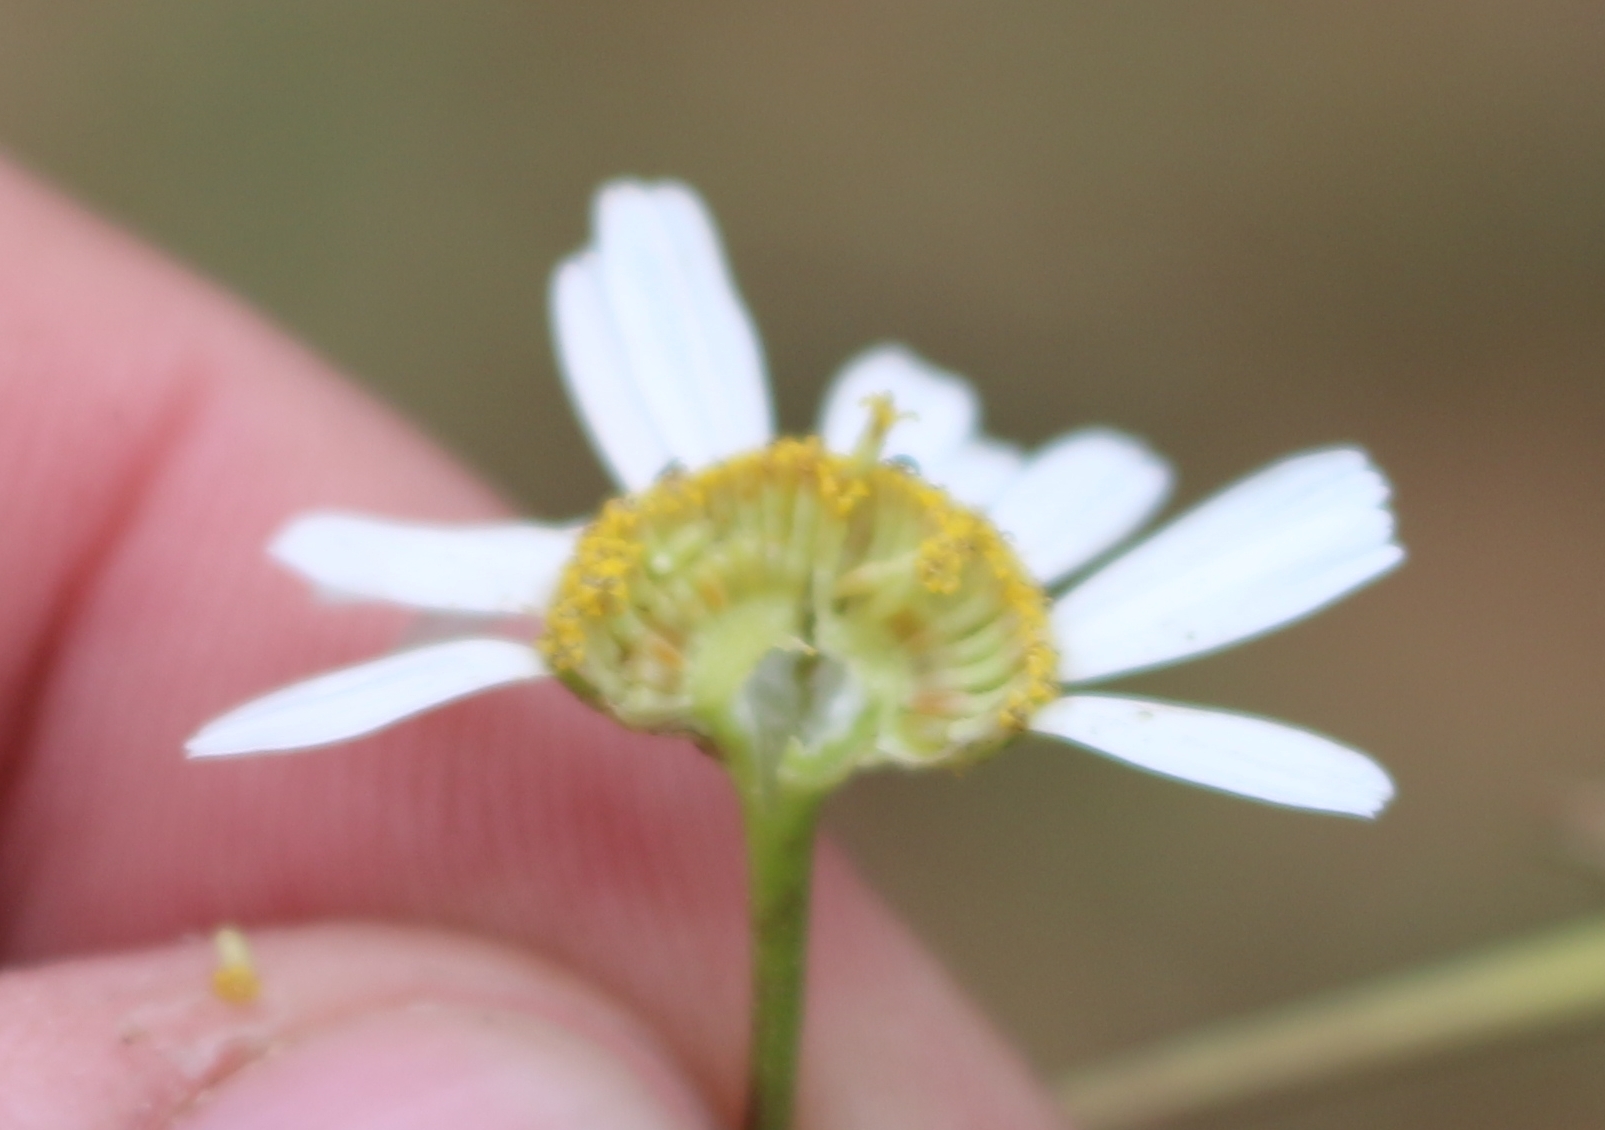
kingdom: Plantae
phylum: Tracheophyta
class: Magnoliopsida
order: Asterales
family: Asteraceae
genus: Tanacetum
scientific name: Tanacetum partheniifolium
